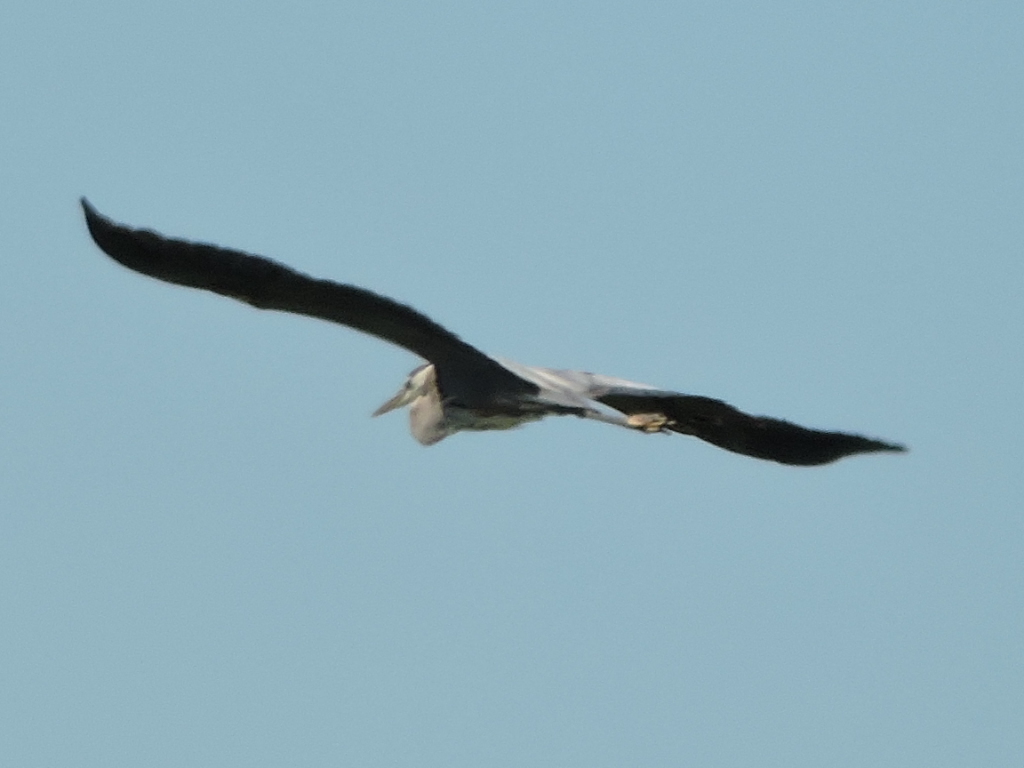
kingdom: Animalia
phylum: Chordata
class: Aves
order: Pelecaniformes
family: Ardeidae
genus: Ardea
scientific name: Ardea herodias
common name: Great blue heron
